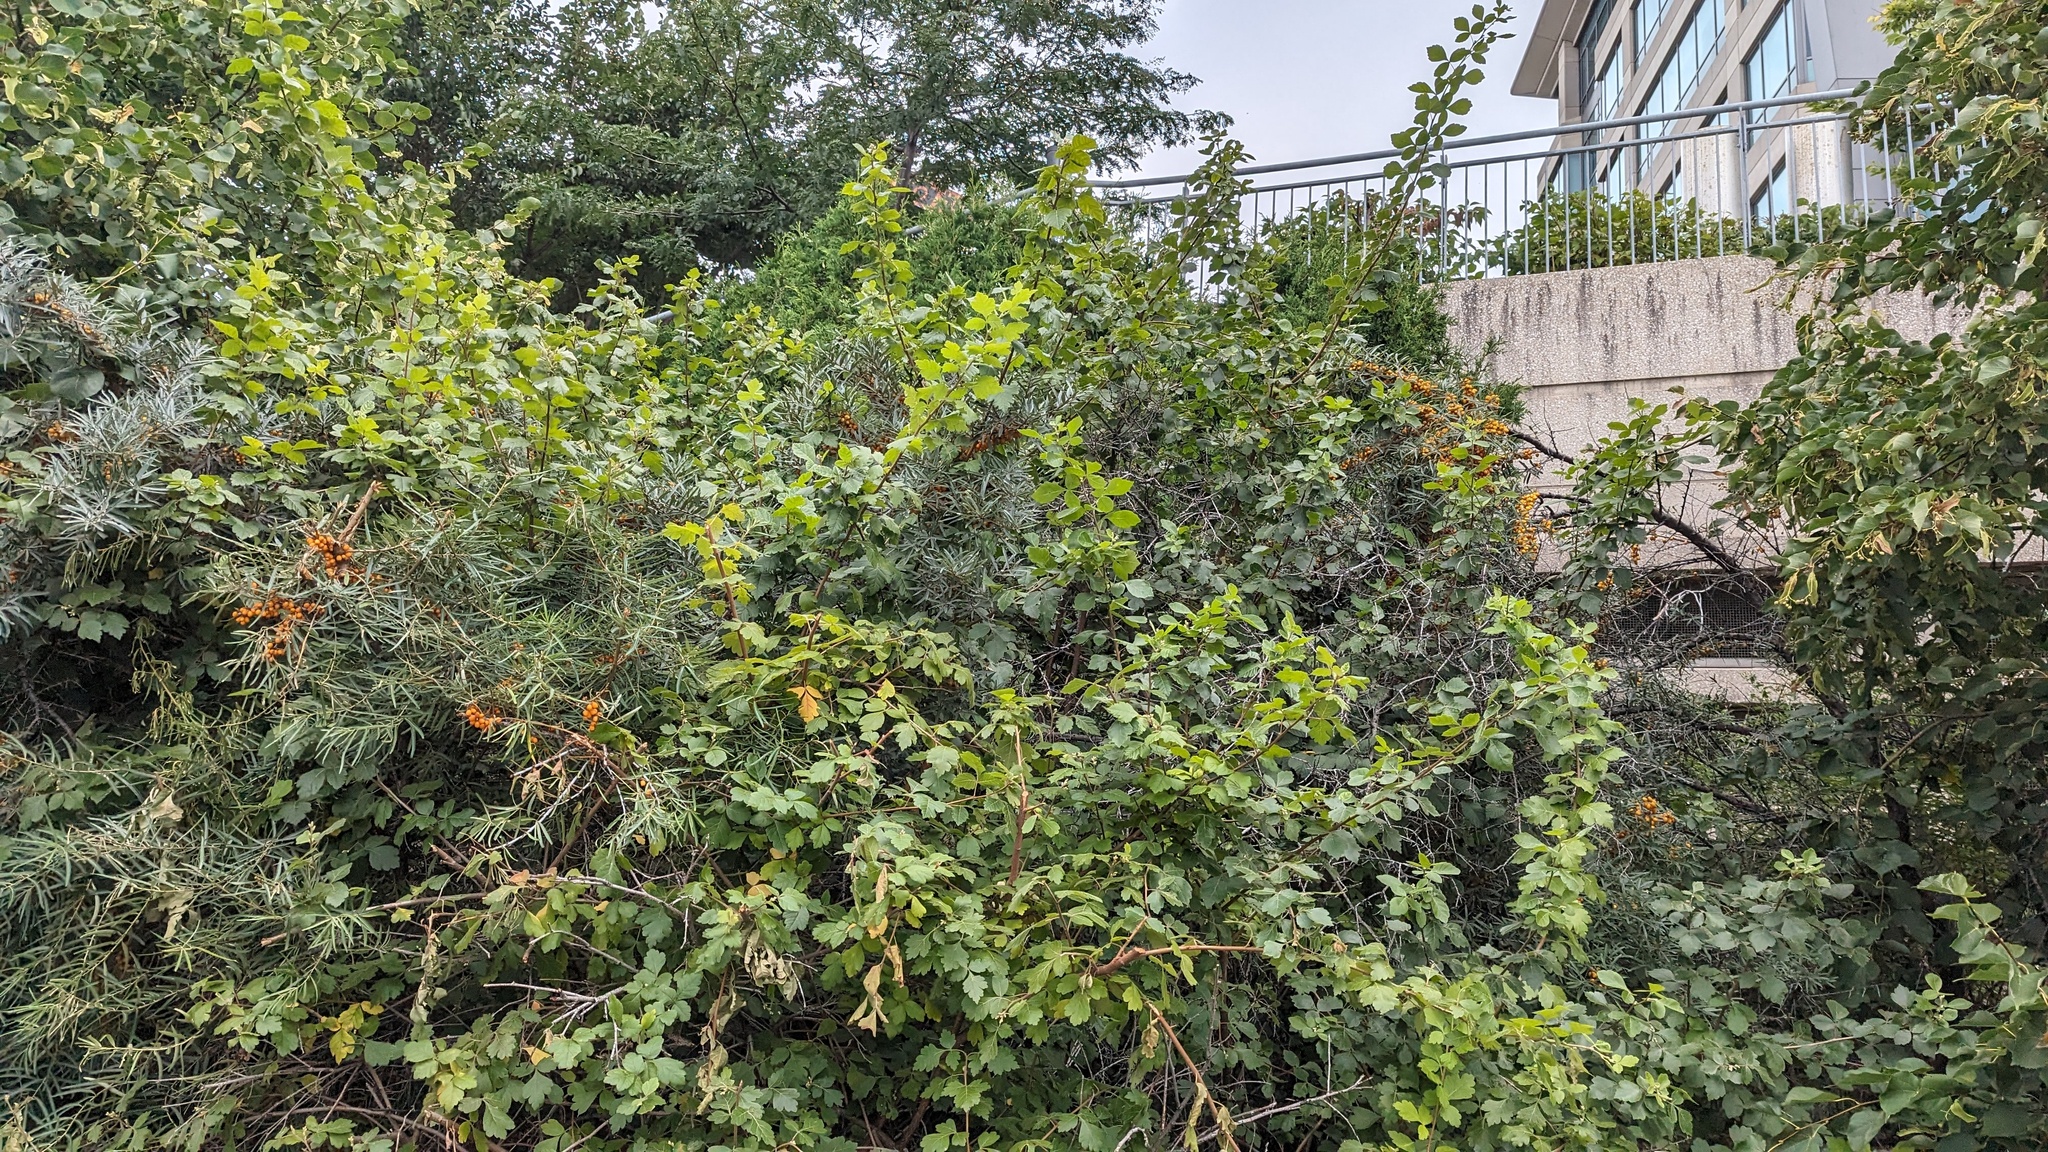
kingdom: Plantae
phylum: Tracheophyta
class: Magnoliopsida
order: Rosales
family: Elaeagnaceae
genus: Hippophae
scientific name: Hippophae rhamnoides
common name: Sea-buckthorn
